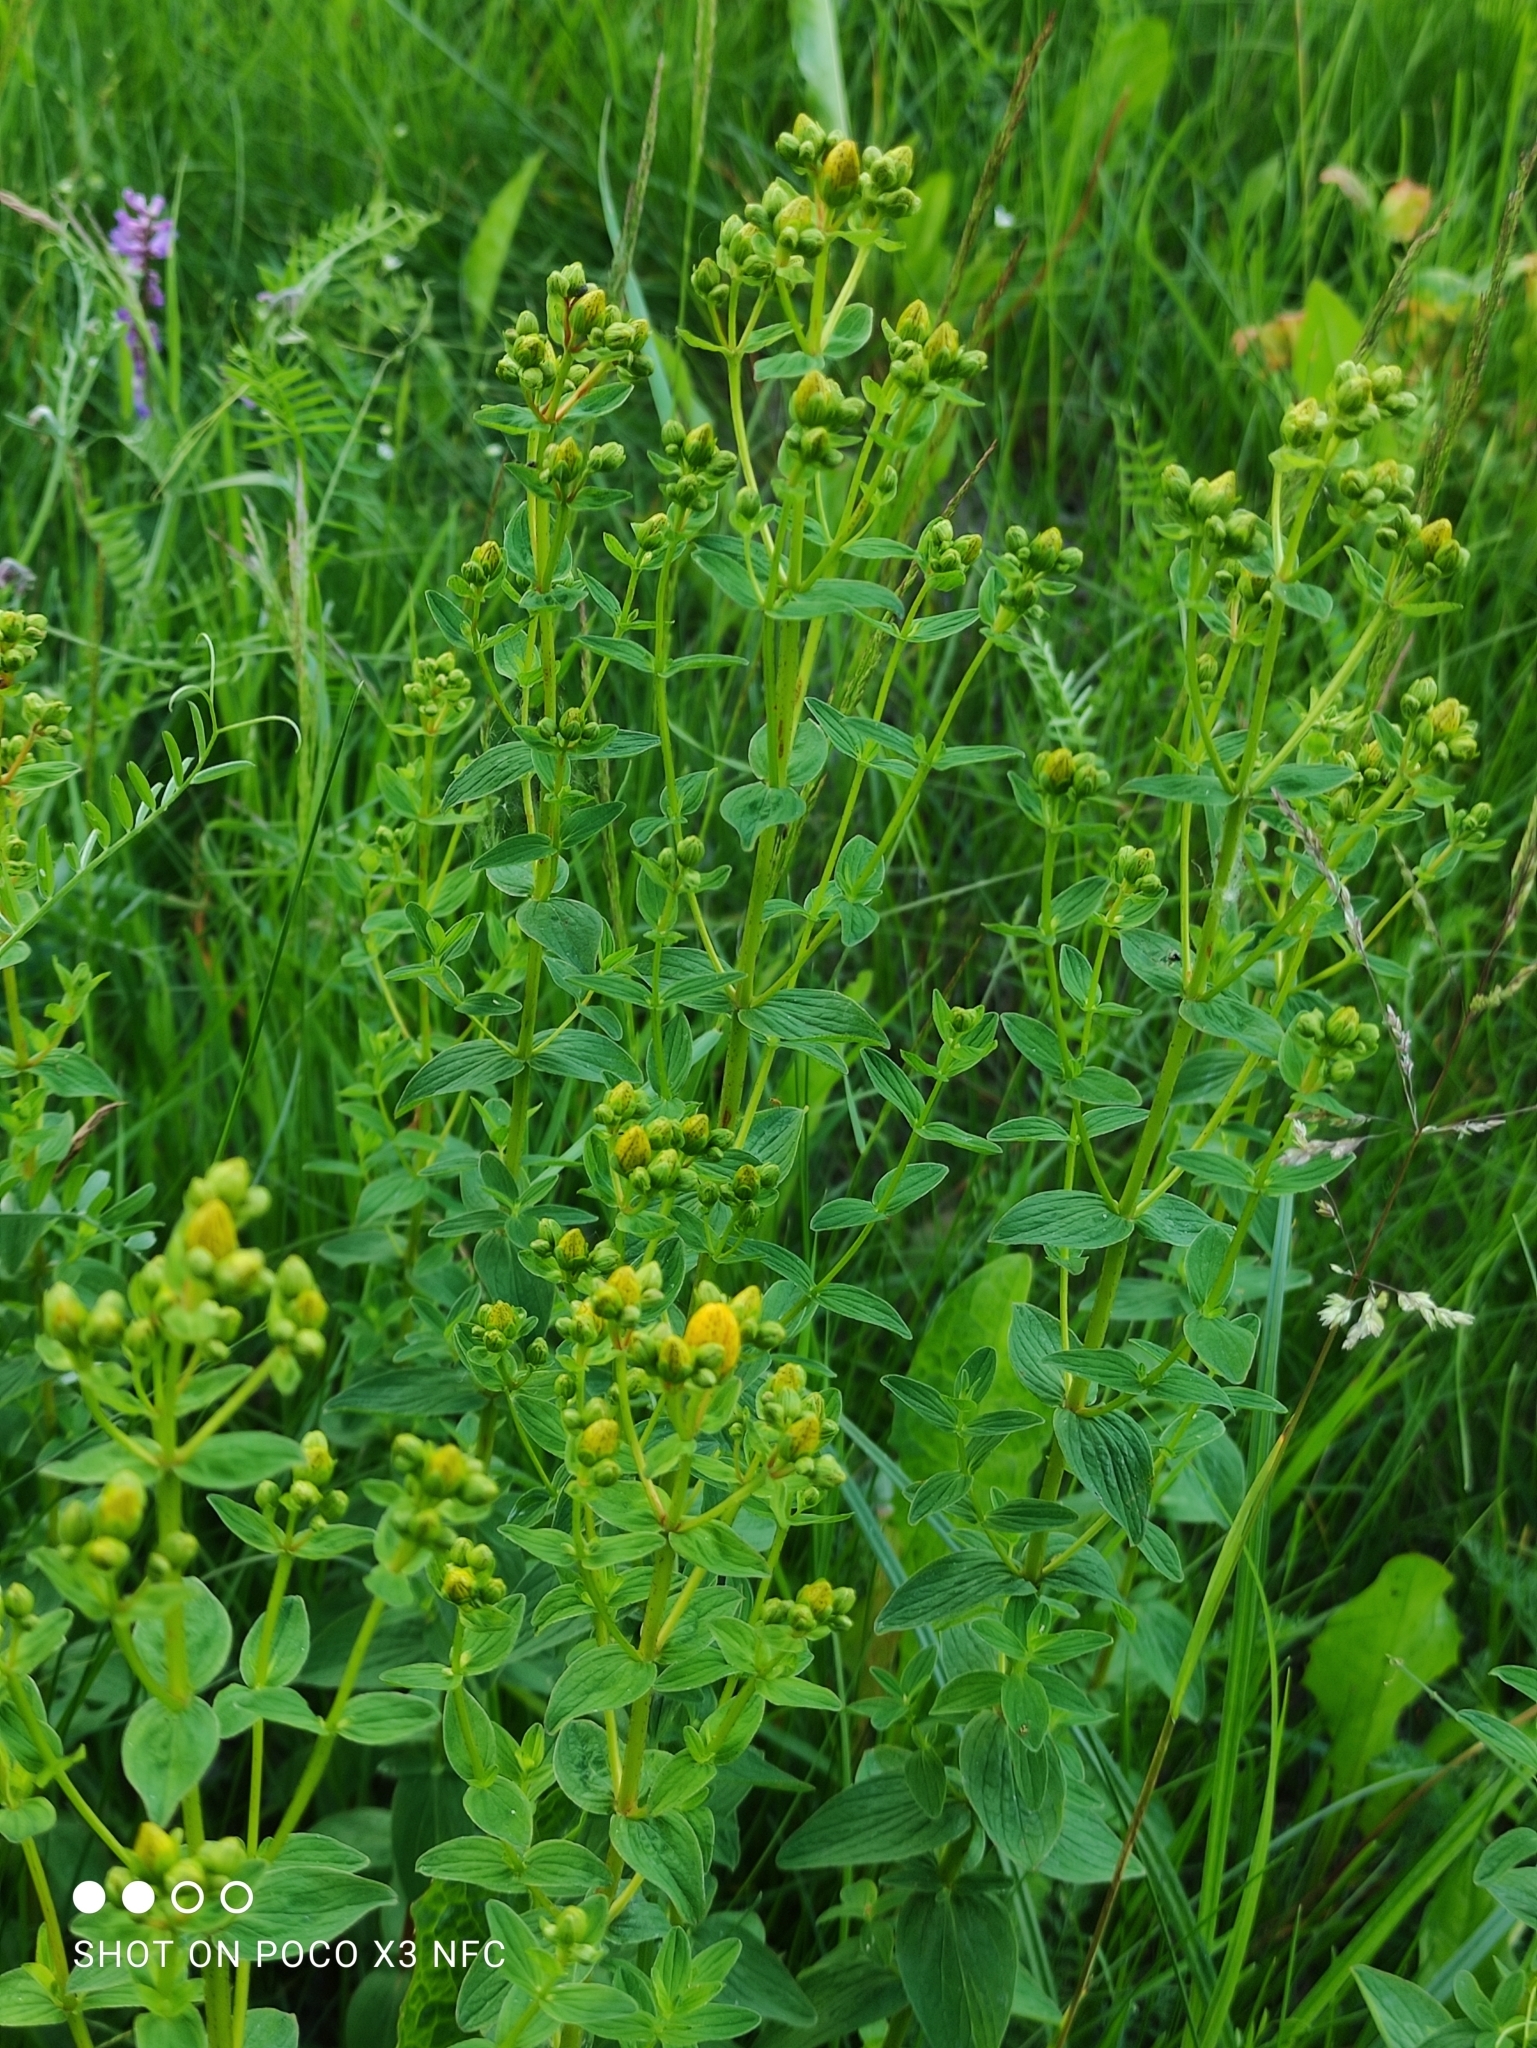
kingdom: Plantae
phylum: Tracheophyta
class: Magnoliopsida
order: Malpighiales
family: Hypericaceae
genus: Hypericum
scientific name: Hypericum maculatum
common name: Imperforate st. john's-wort
